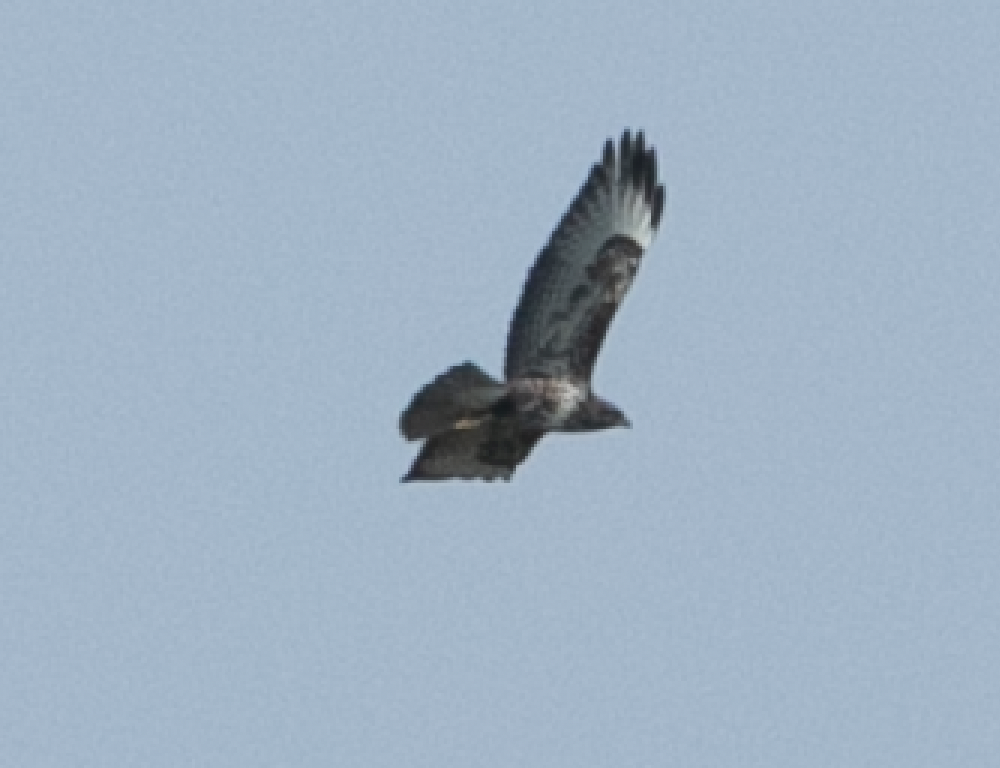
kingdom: Animalia
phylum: Chordata
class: Aves
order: Accipitriformes
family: Accipitridae
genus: Buteo
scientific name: Buteo buteo
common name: Common buzzard
